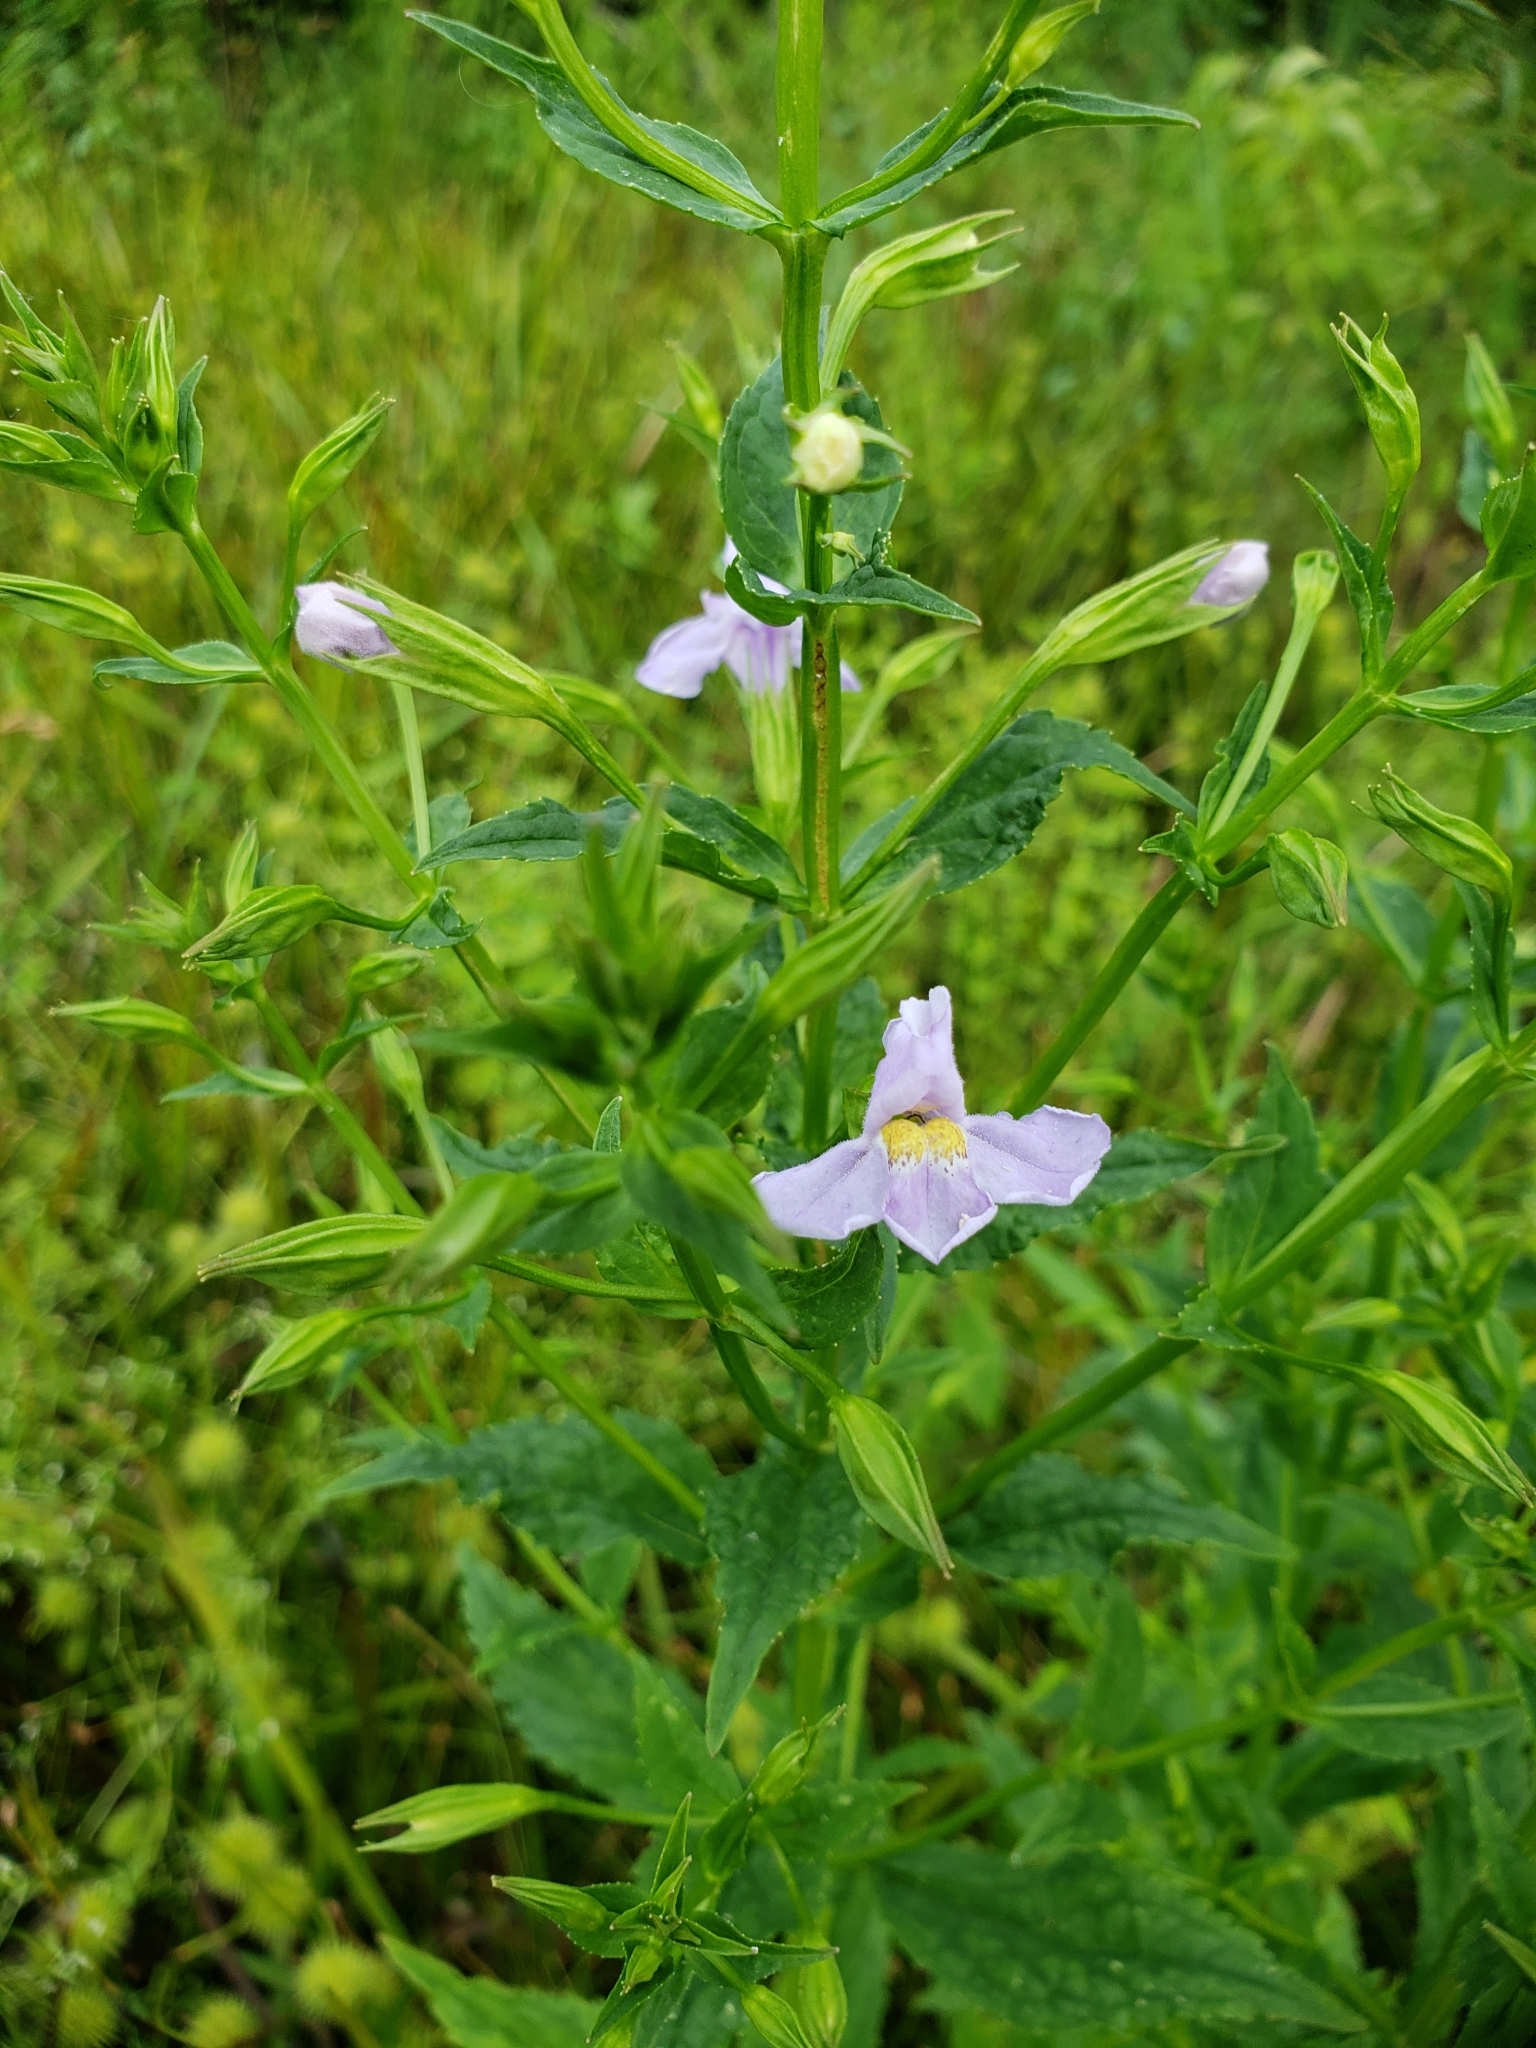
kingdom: Plantae
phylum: Tracheophyta
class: Magnoliopsida
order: Lamiales
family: Phrymaceae
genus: Mimulus
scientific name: Mimulus ringens
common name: Allegheny monkeyflower
